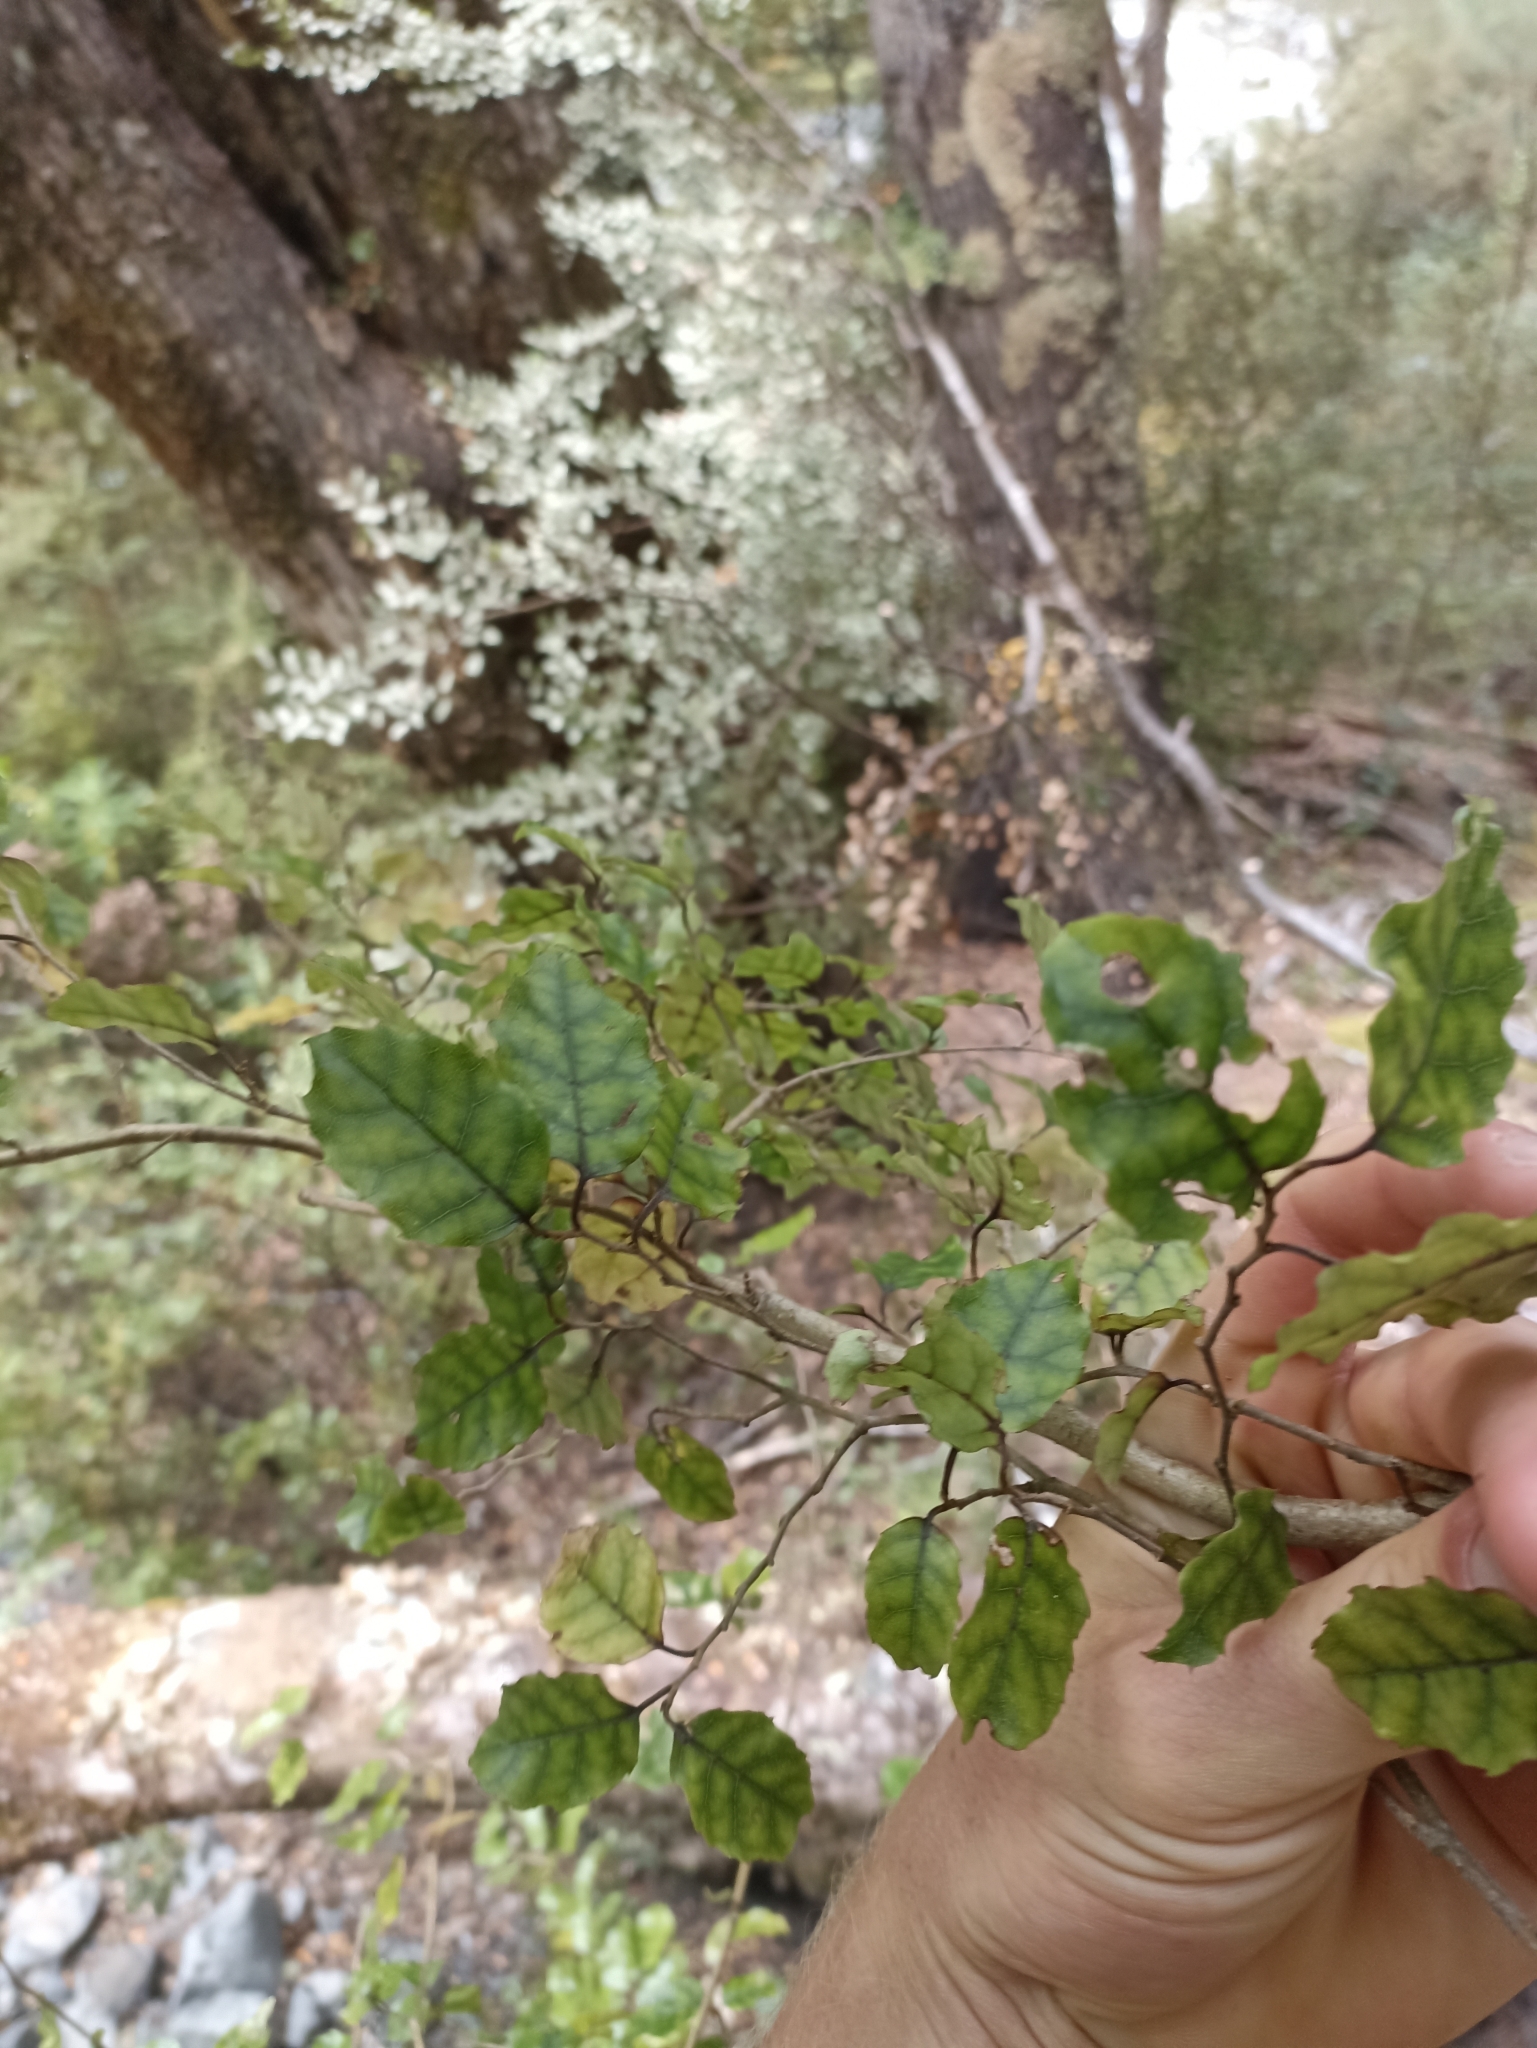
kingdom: Plantae
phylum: Tracheophyta
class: Magnoliopsida
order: Asterales
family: Rousseaceae
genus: Carpodetus
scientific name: Carpodetus serratus
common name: White mapau
